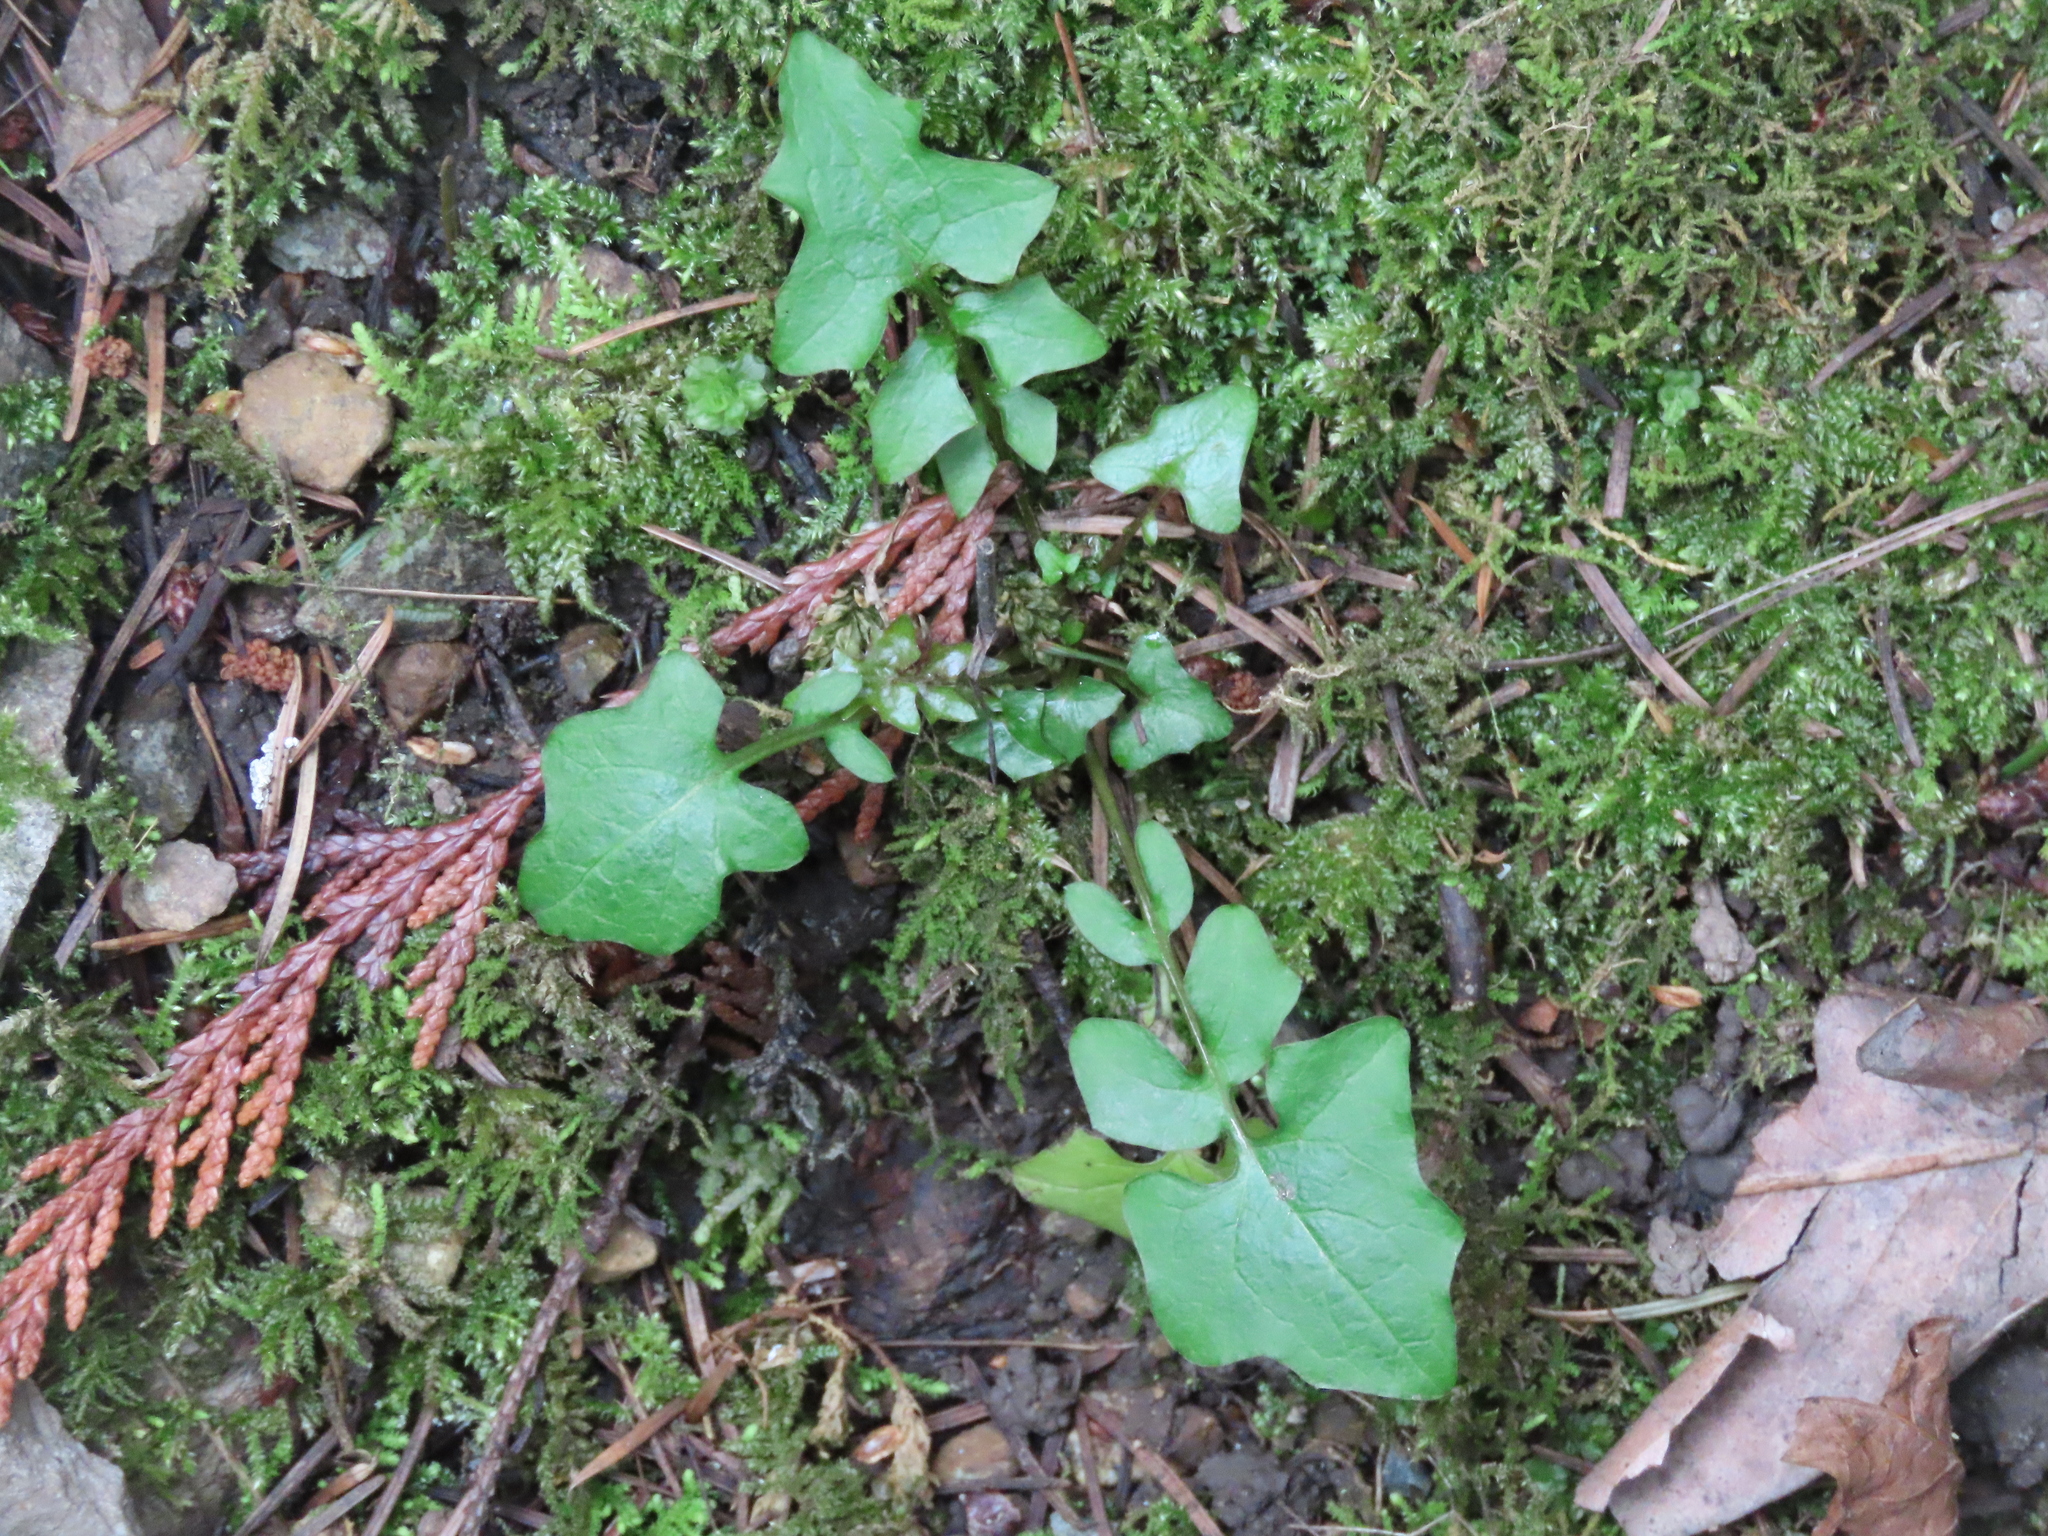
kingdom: Plantae
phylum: Tracheophyta
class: Magnoliopsida
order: Asterales
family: Asteraceae
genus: Mycelis
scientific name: Mycelis muralis
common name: Wall lettuce
